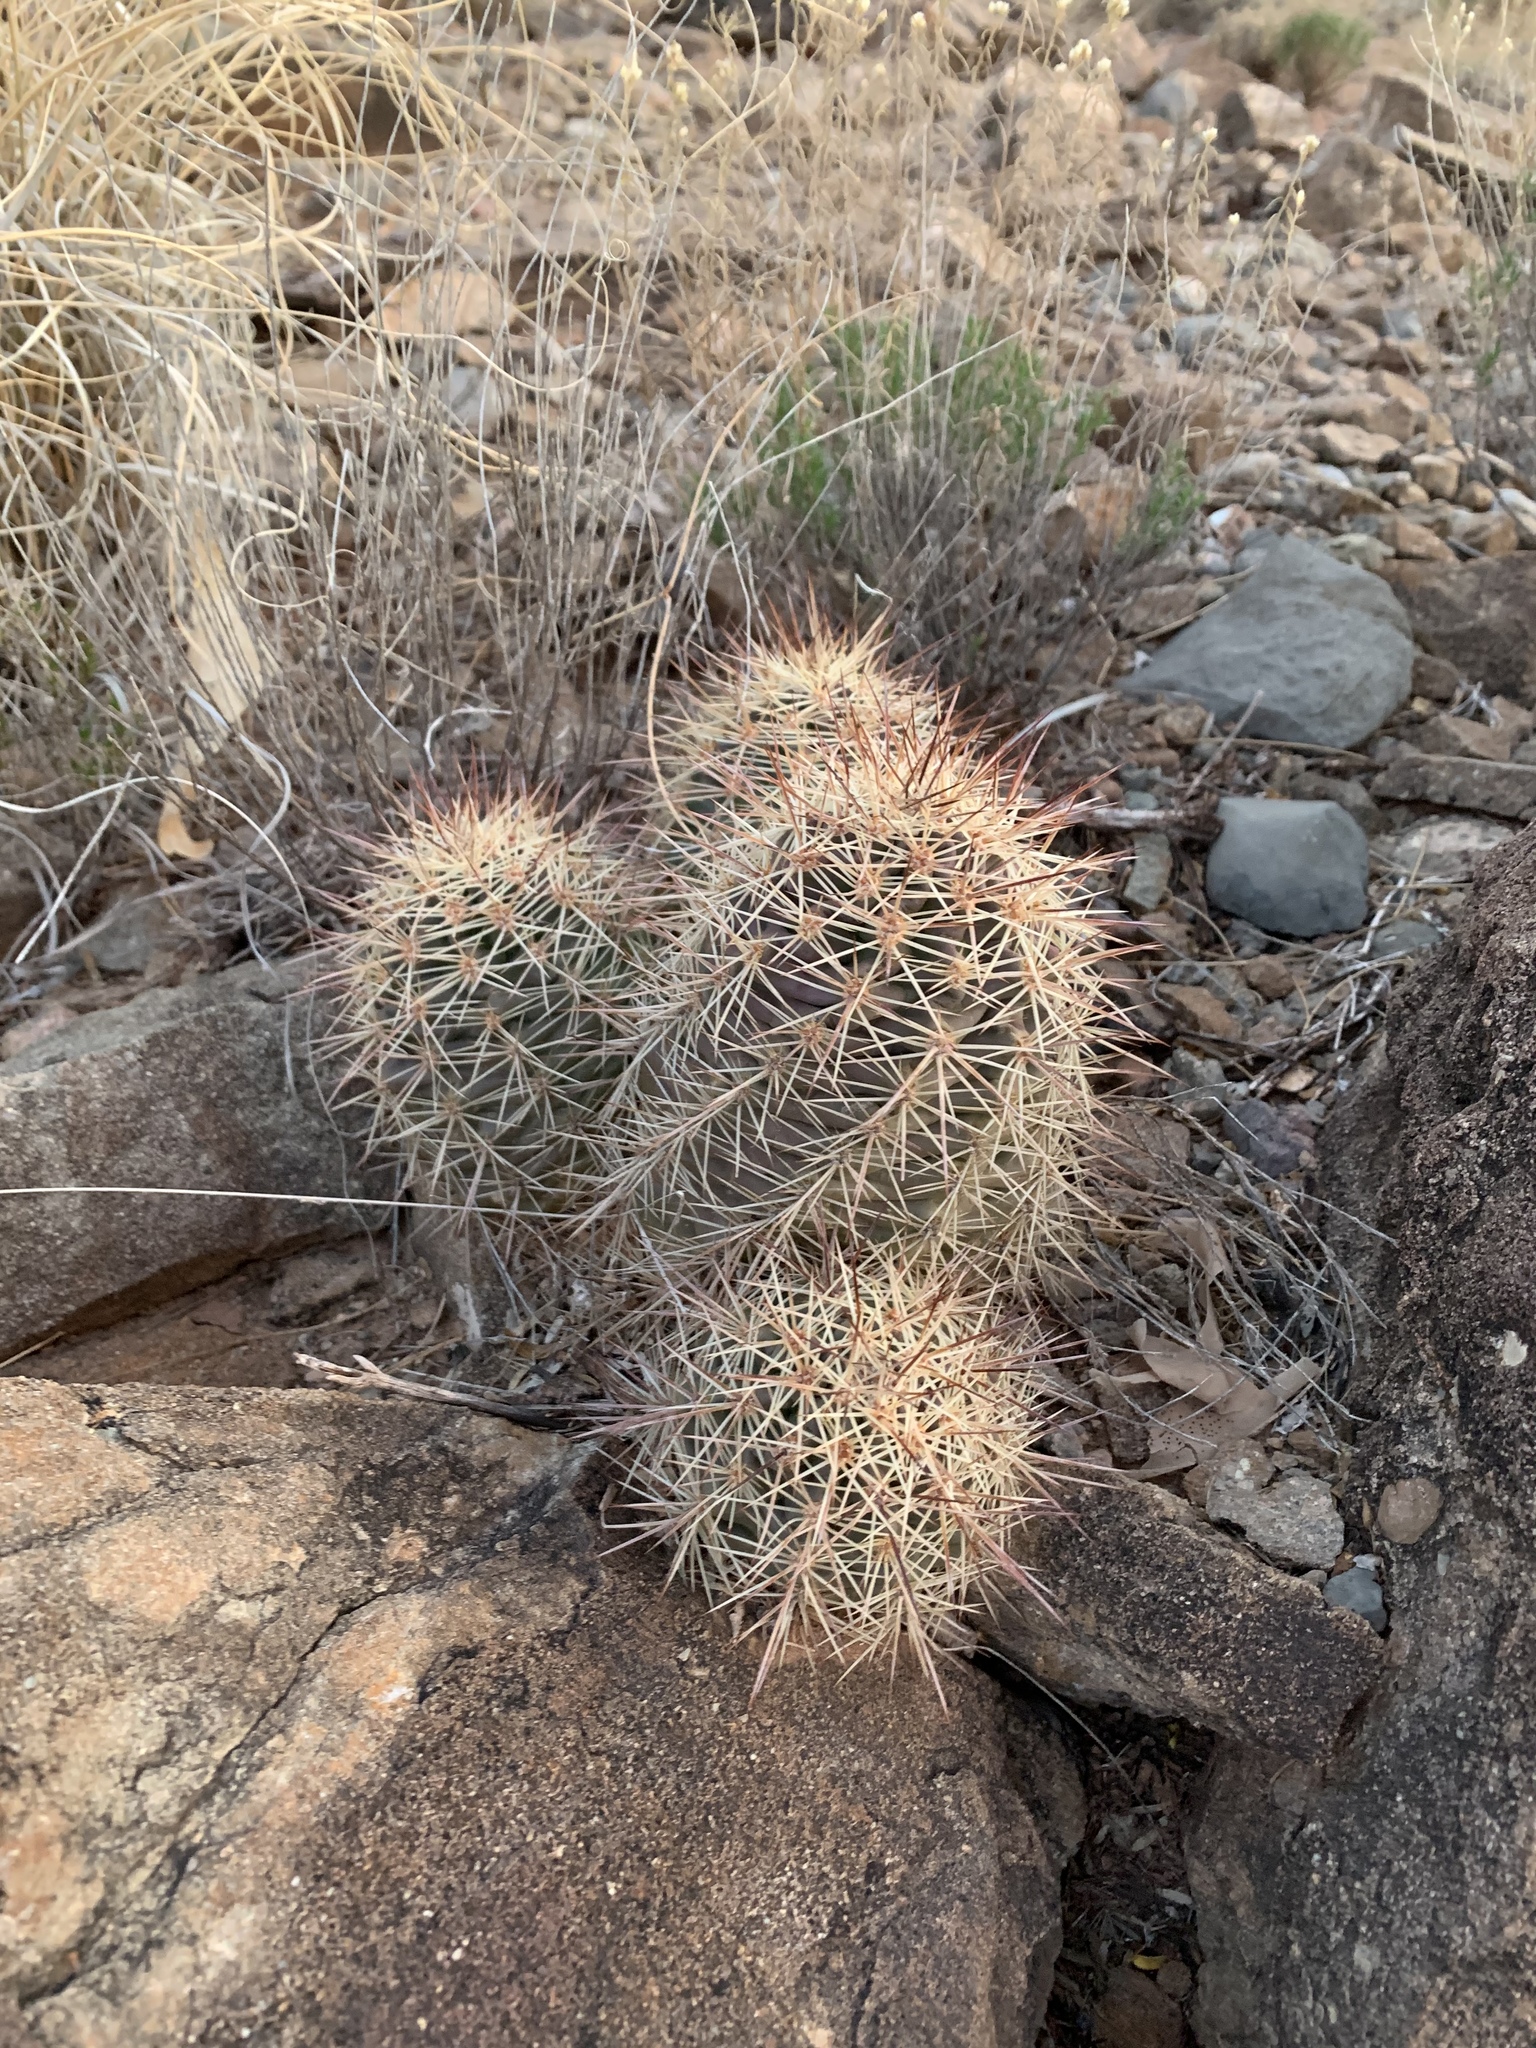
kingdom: Plantae
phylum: Tracheophyta
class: Magnoliopsida
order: Caryophyllales
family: Cactaceae
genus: Echinocereus
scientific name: Echinocereus coccineus
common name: Scarlet hedgehog cactus
